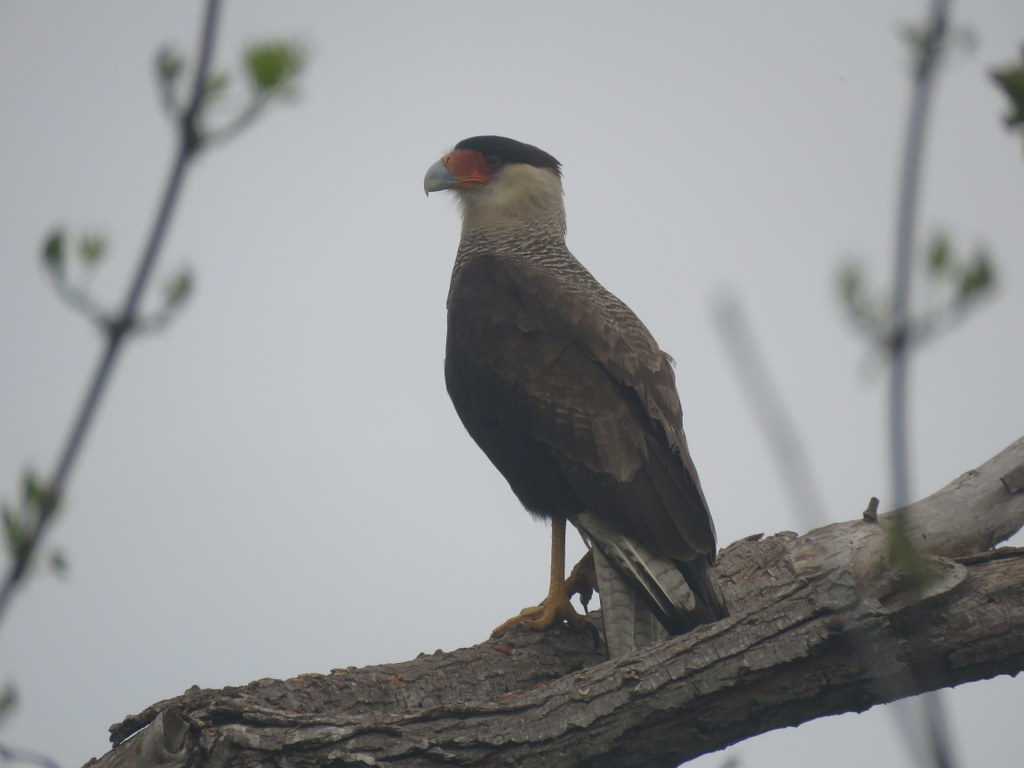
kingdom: Animalia
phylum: Chordata
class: Aves
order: Falconiformes
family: Falconidae
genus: Caracara
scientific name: Caracara plancus
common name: Southern caracara
